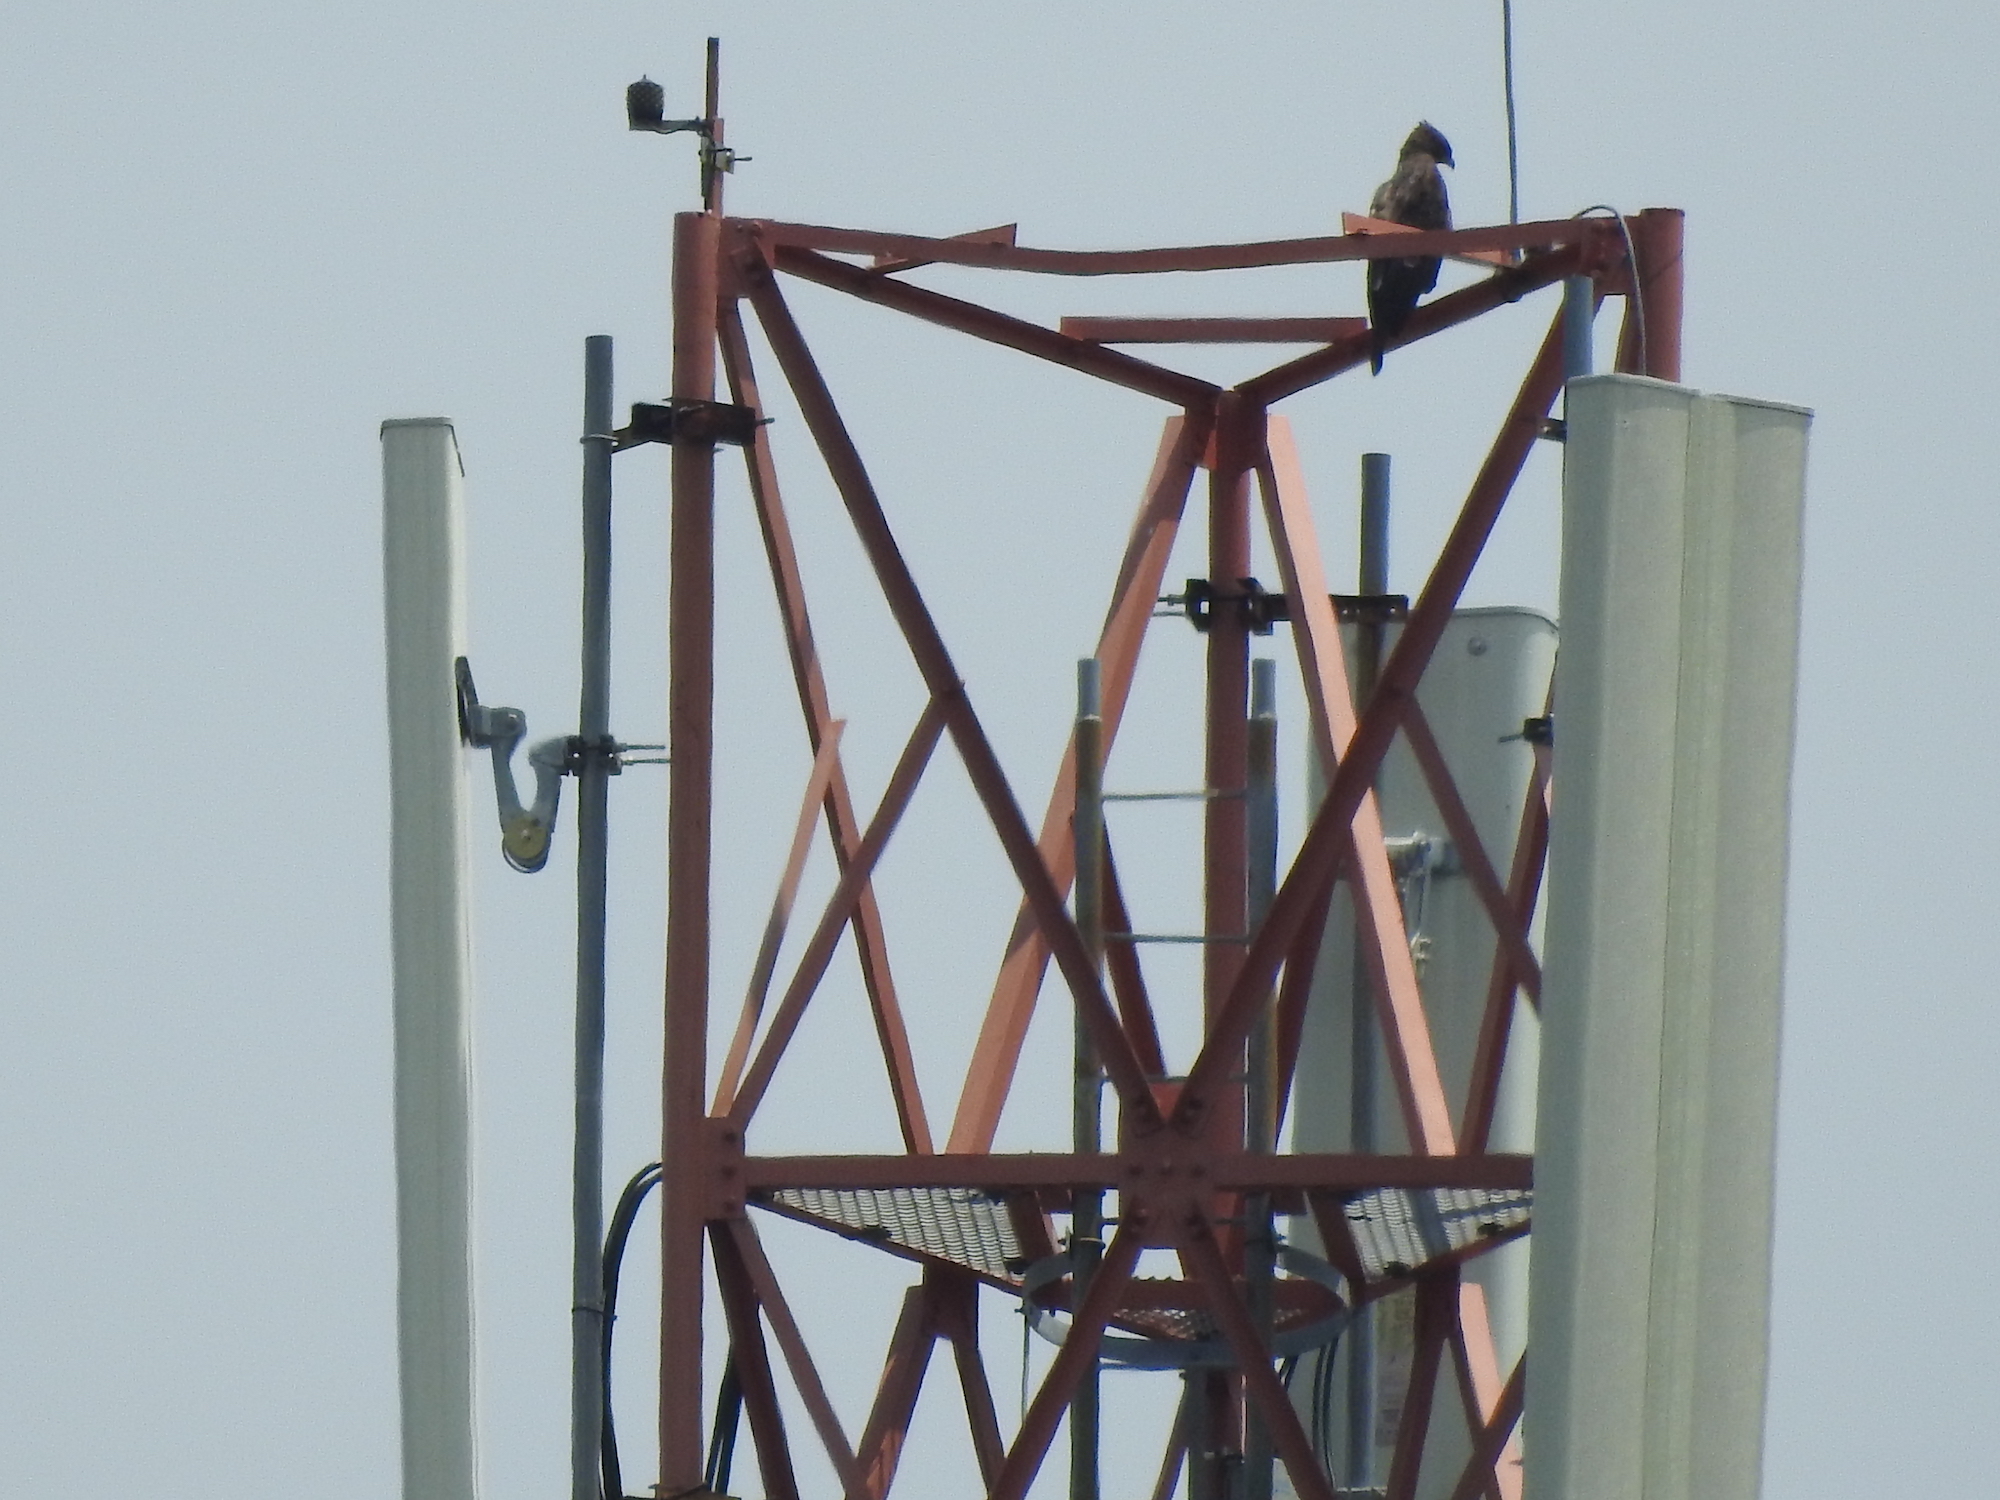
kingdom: Animalia
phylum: Chordata
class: Aves
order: Accipitriformes
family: Accipitridae
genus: Nisaetus
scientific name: Nisaetus cirrhatus
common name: Changeable hawk-eagle
